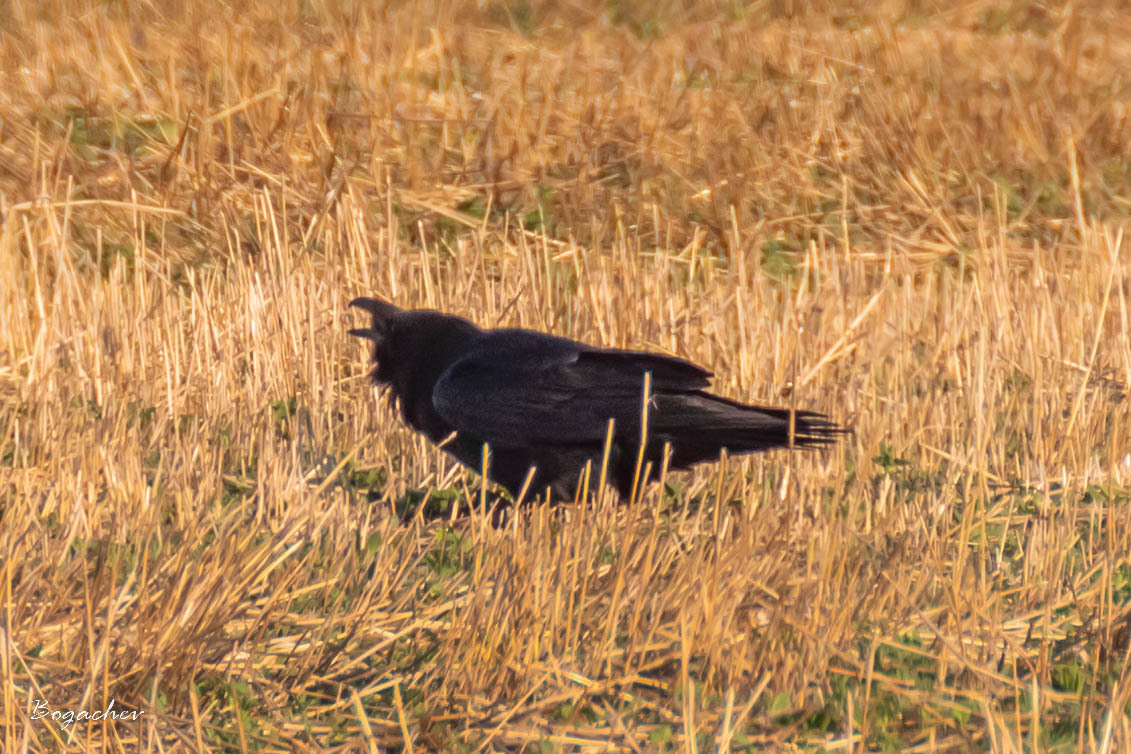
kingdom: Animalia
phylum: Chordata
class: Aves
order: Passeriformes
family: Corvidae
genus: Corvus
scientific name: Corvus corax
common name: Common raven
